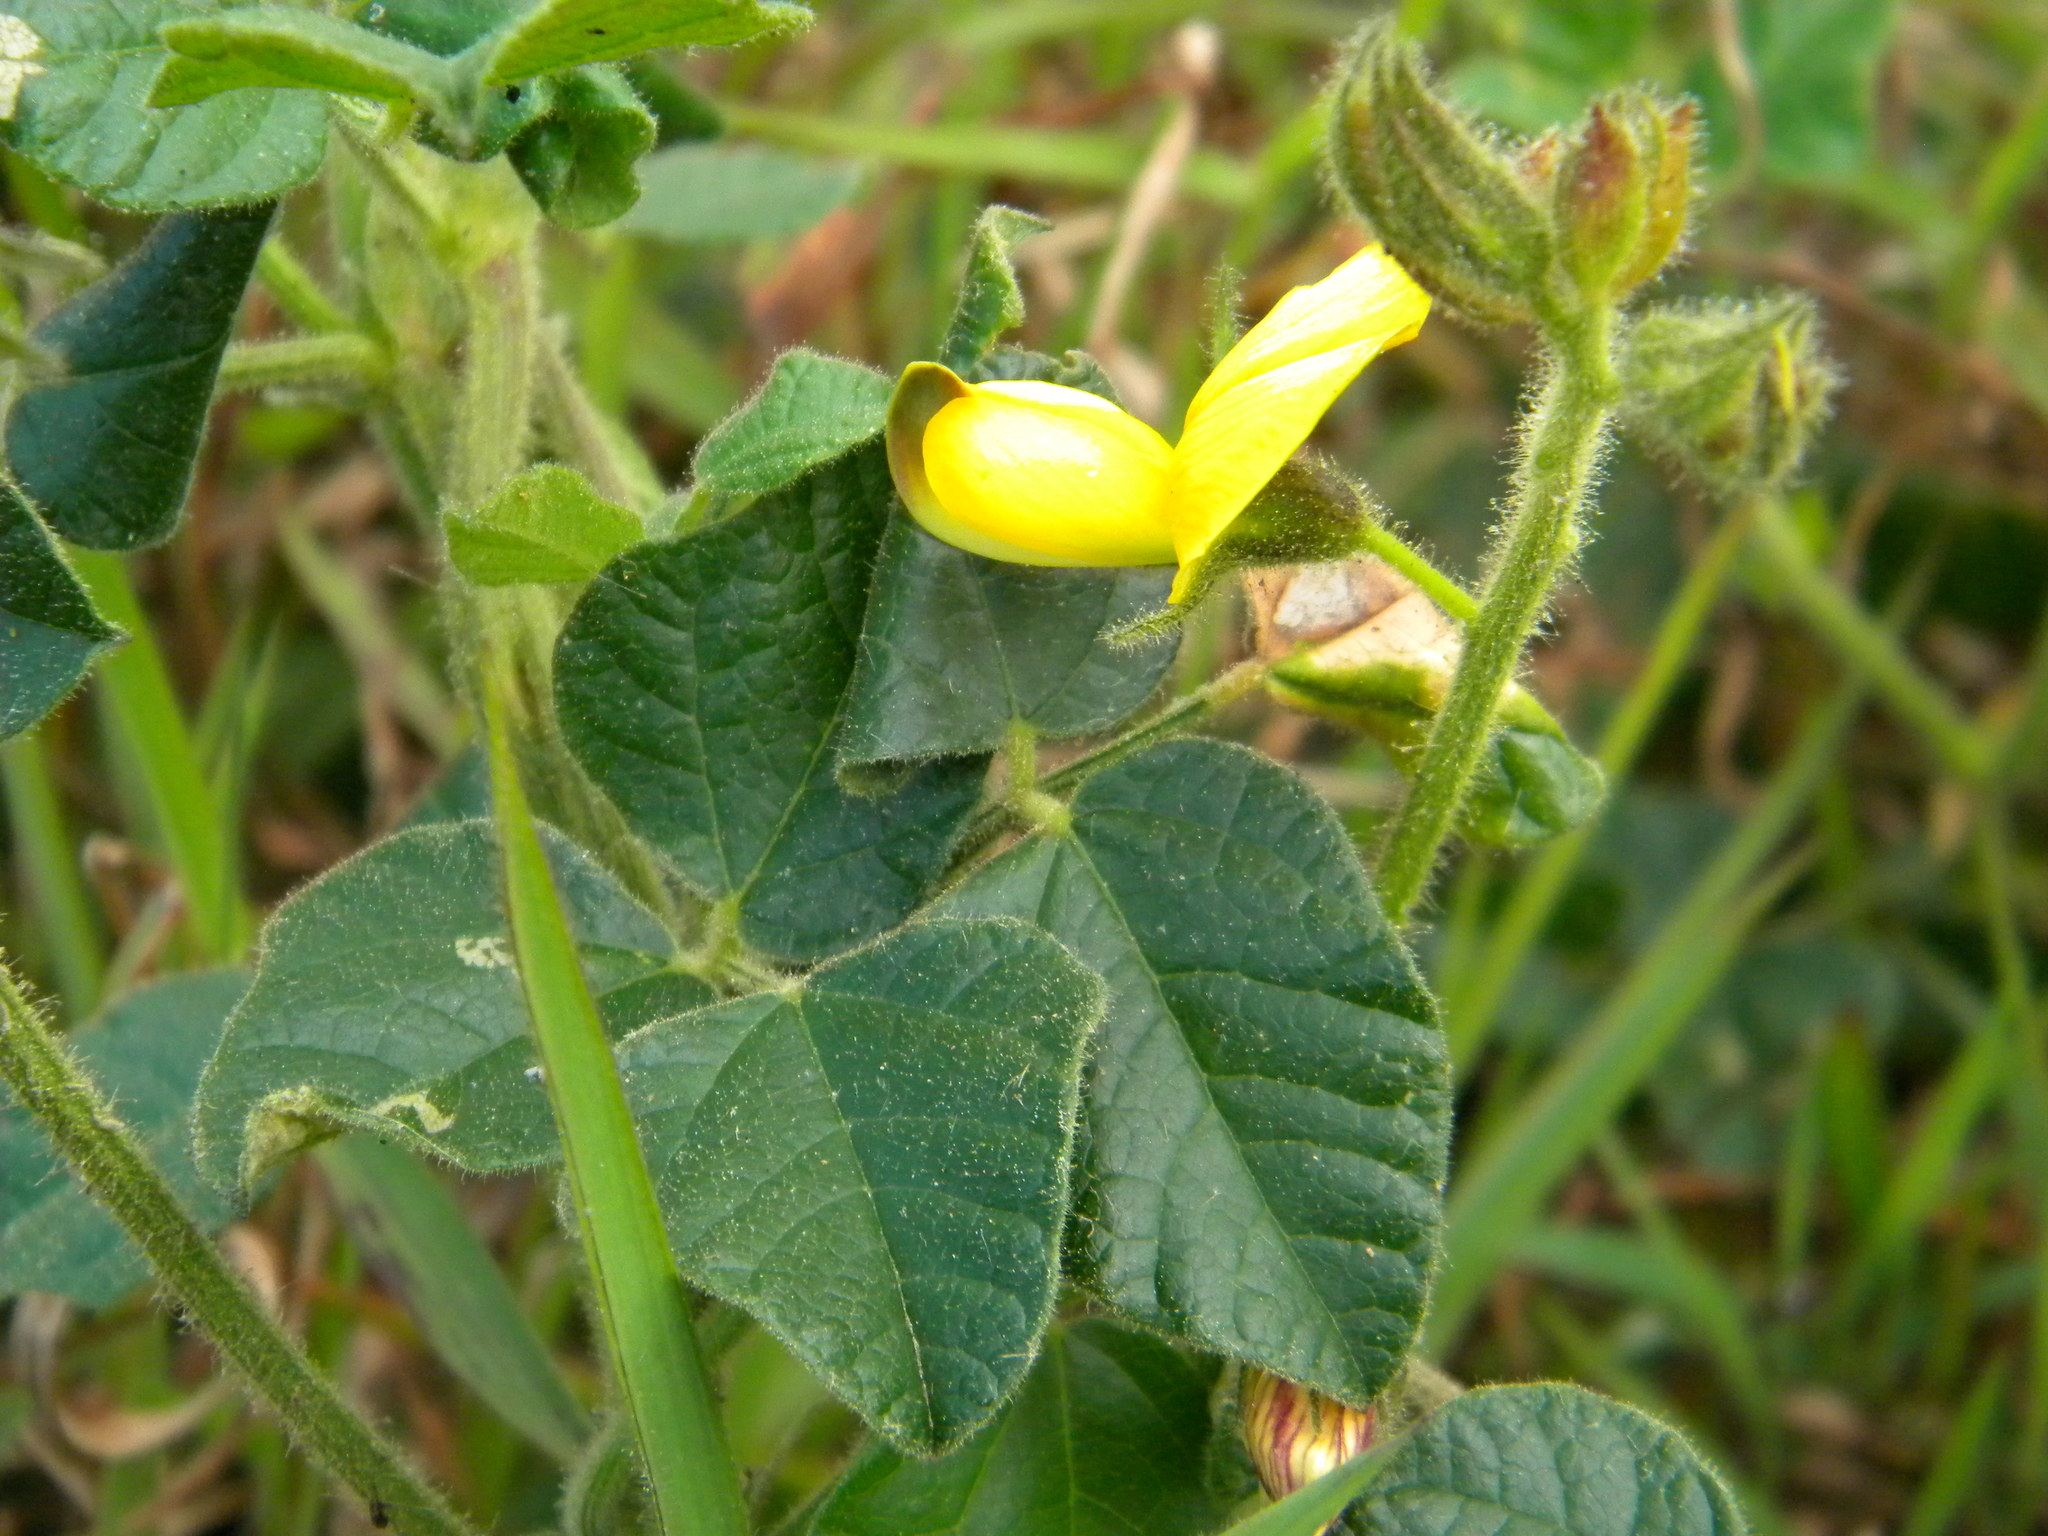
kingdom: Plantae
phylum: Tracheophyta
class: Magnoliopsida
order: Fabales
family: Fabaceae
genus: Bolusafra
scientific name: Bolusafra bituminosa
